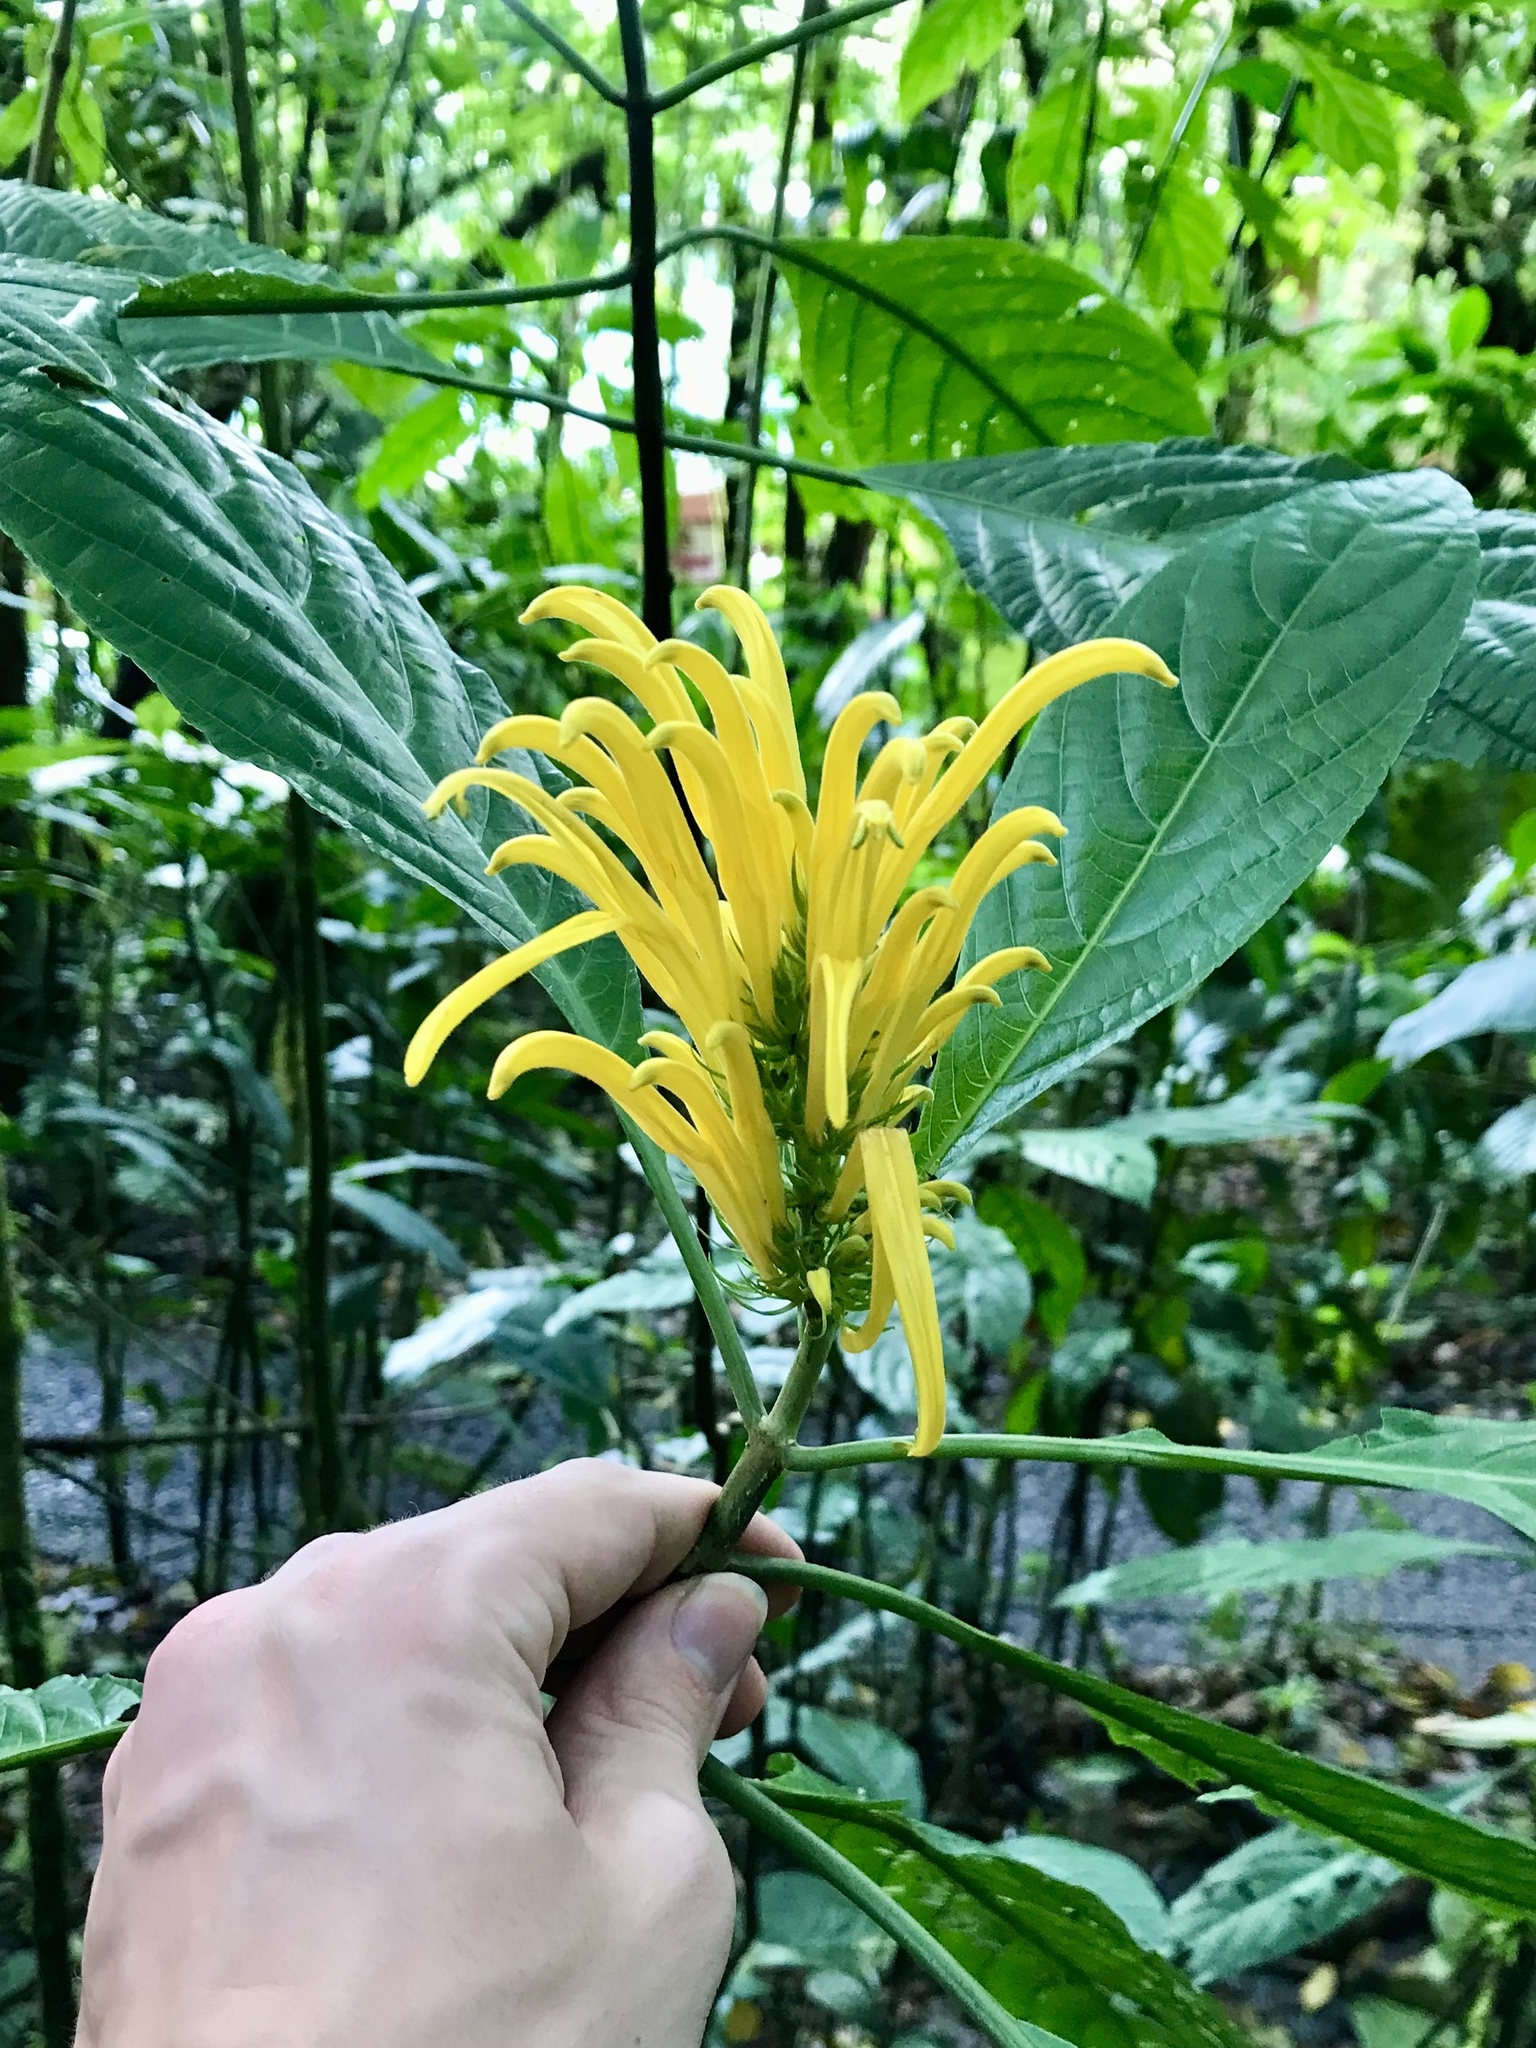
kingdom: Plantae
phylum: Tracheophyta
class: Magnoliopsida
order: Lamiales
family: Acanthaceae
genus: Justicia
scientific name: Justicia aurea
